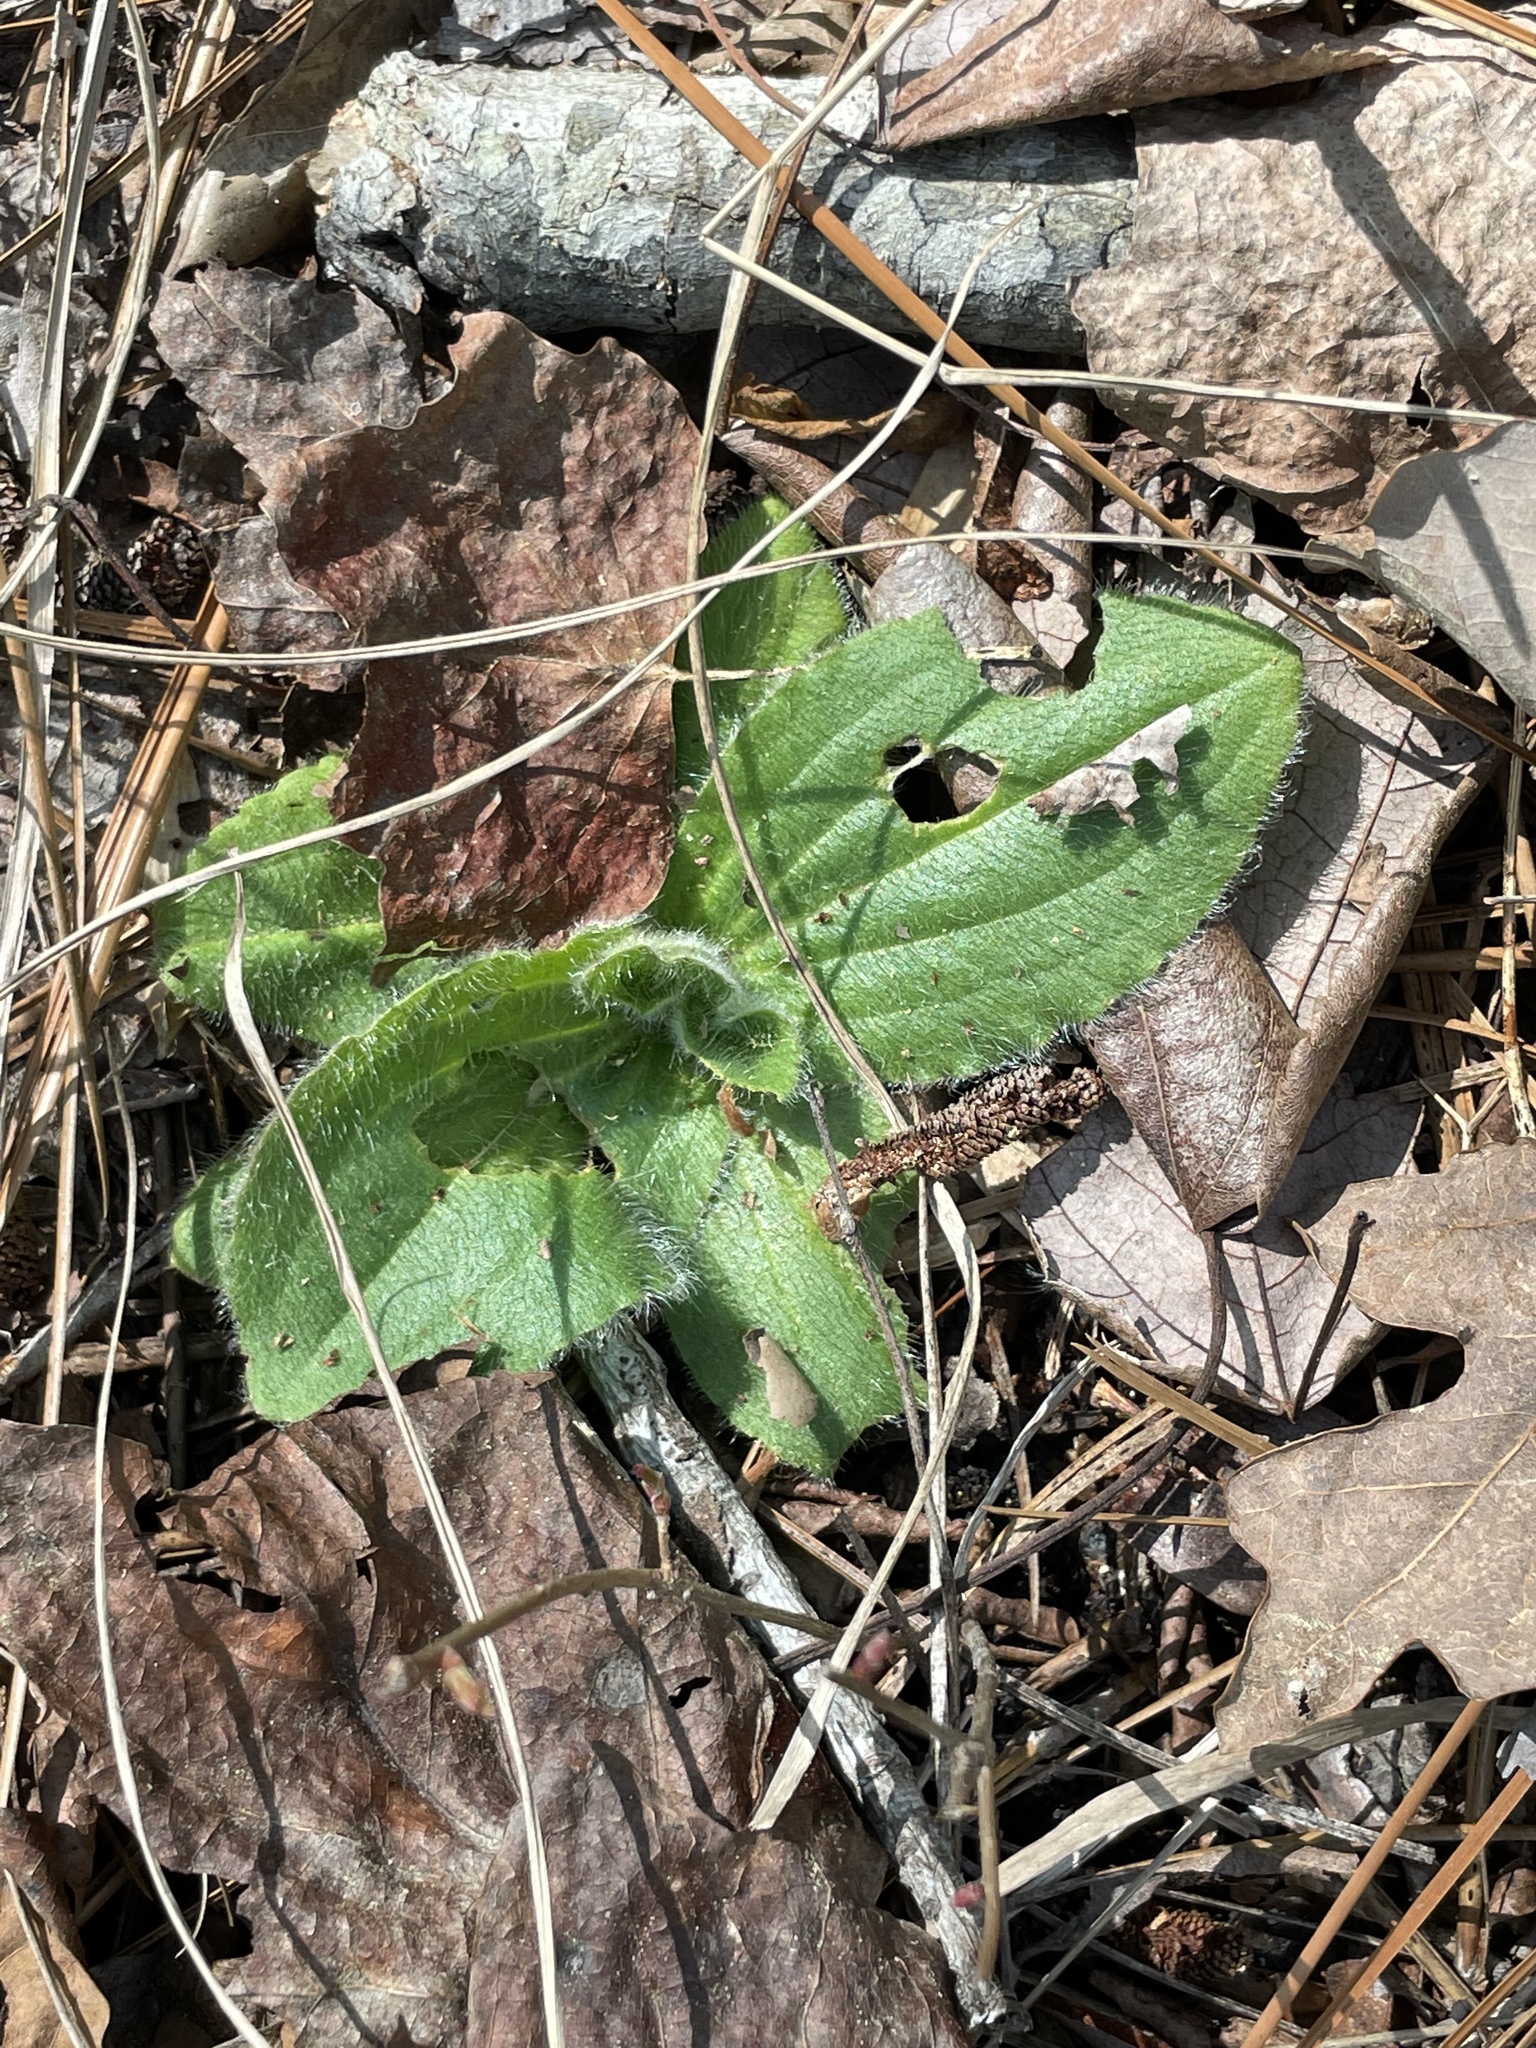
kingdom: Plantae
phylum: Tracheophyta
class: Magnoliopsida
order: Asterales
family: Asteraceae
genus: Arnica
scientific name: Arnica acaulis
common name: Common leopardbane
